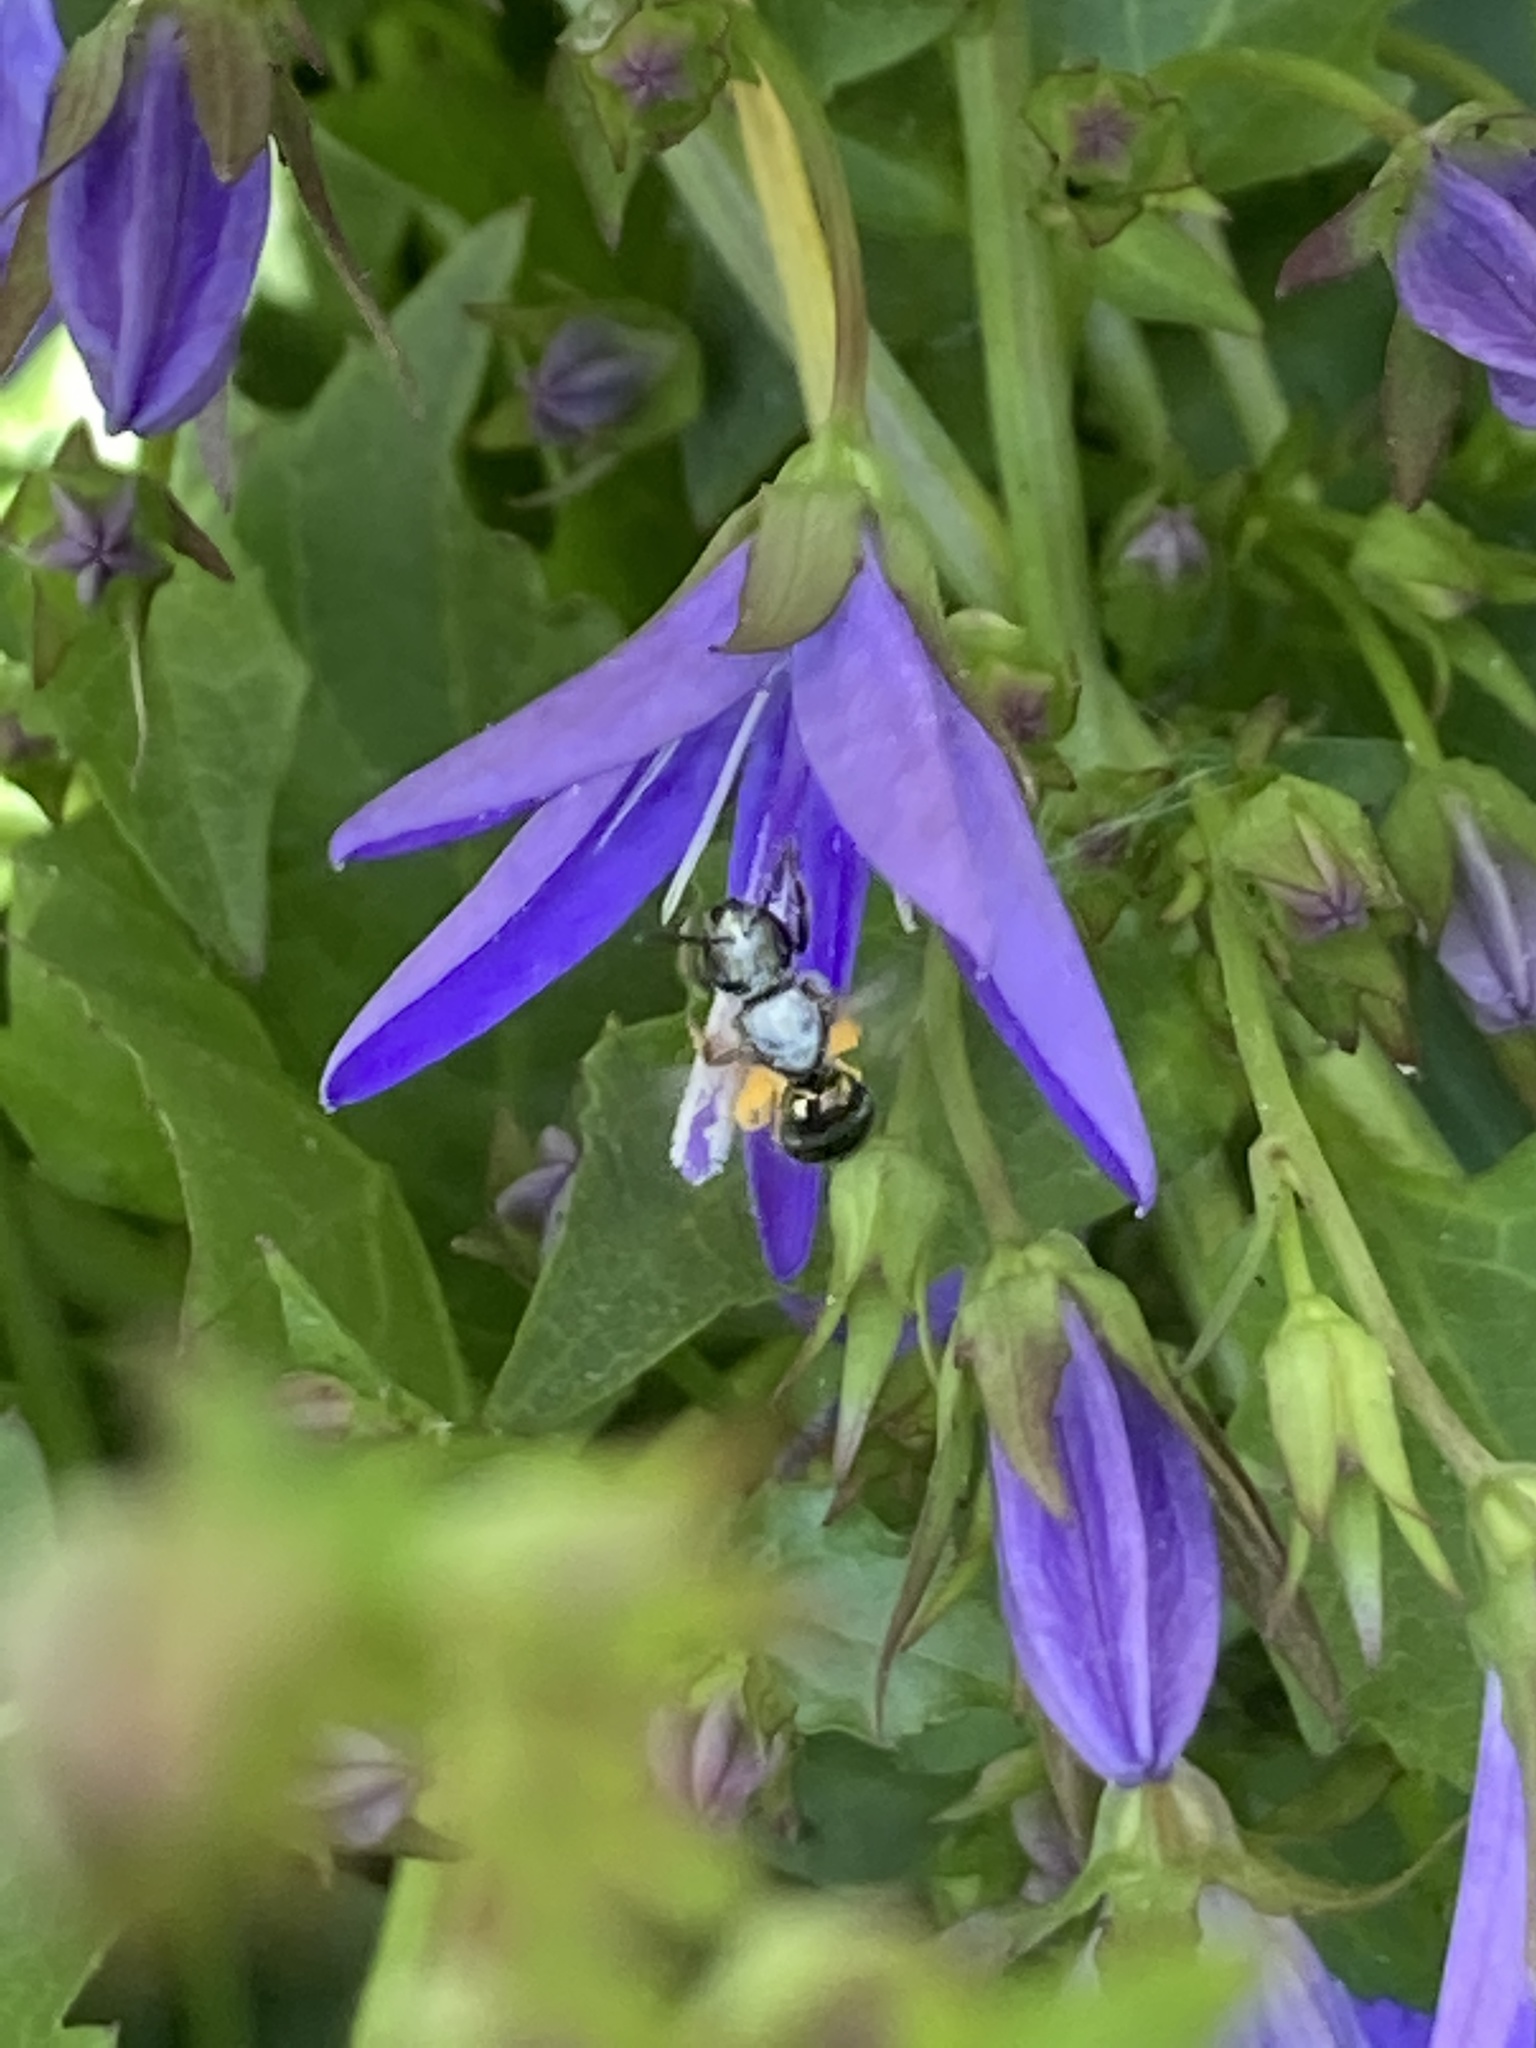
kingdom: Animalia
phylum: Arthropoda
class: Insecta
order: Hymenoptera
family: Halictidae
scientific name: Halictidae
